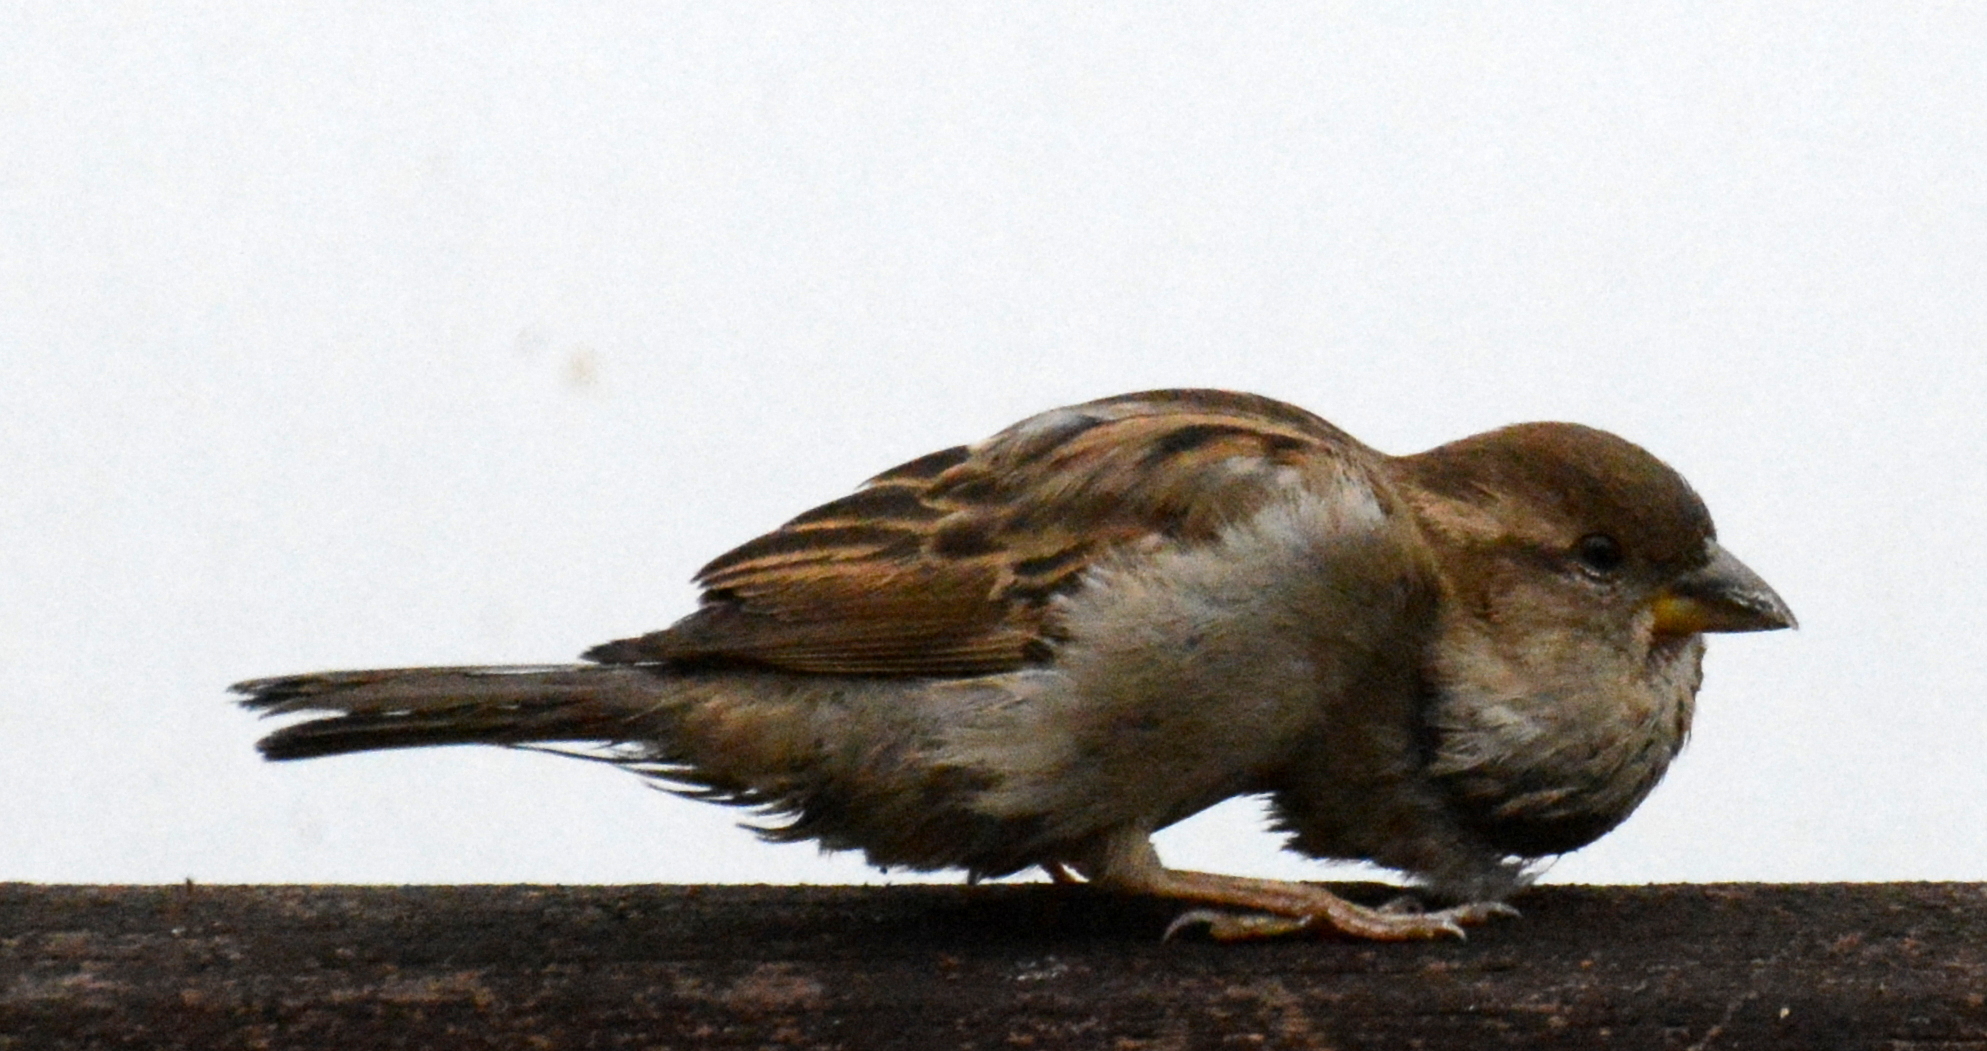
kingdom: Animalia
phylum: Chordata
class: Aves
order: Passeriformes
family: Passeridae
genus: Passer
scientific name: Passer domesticus
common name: House sparrow
